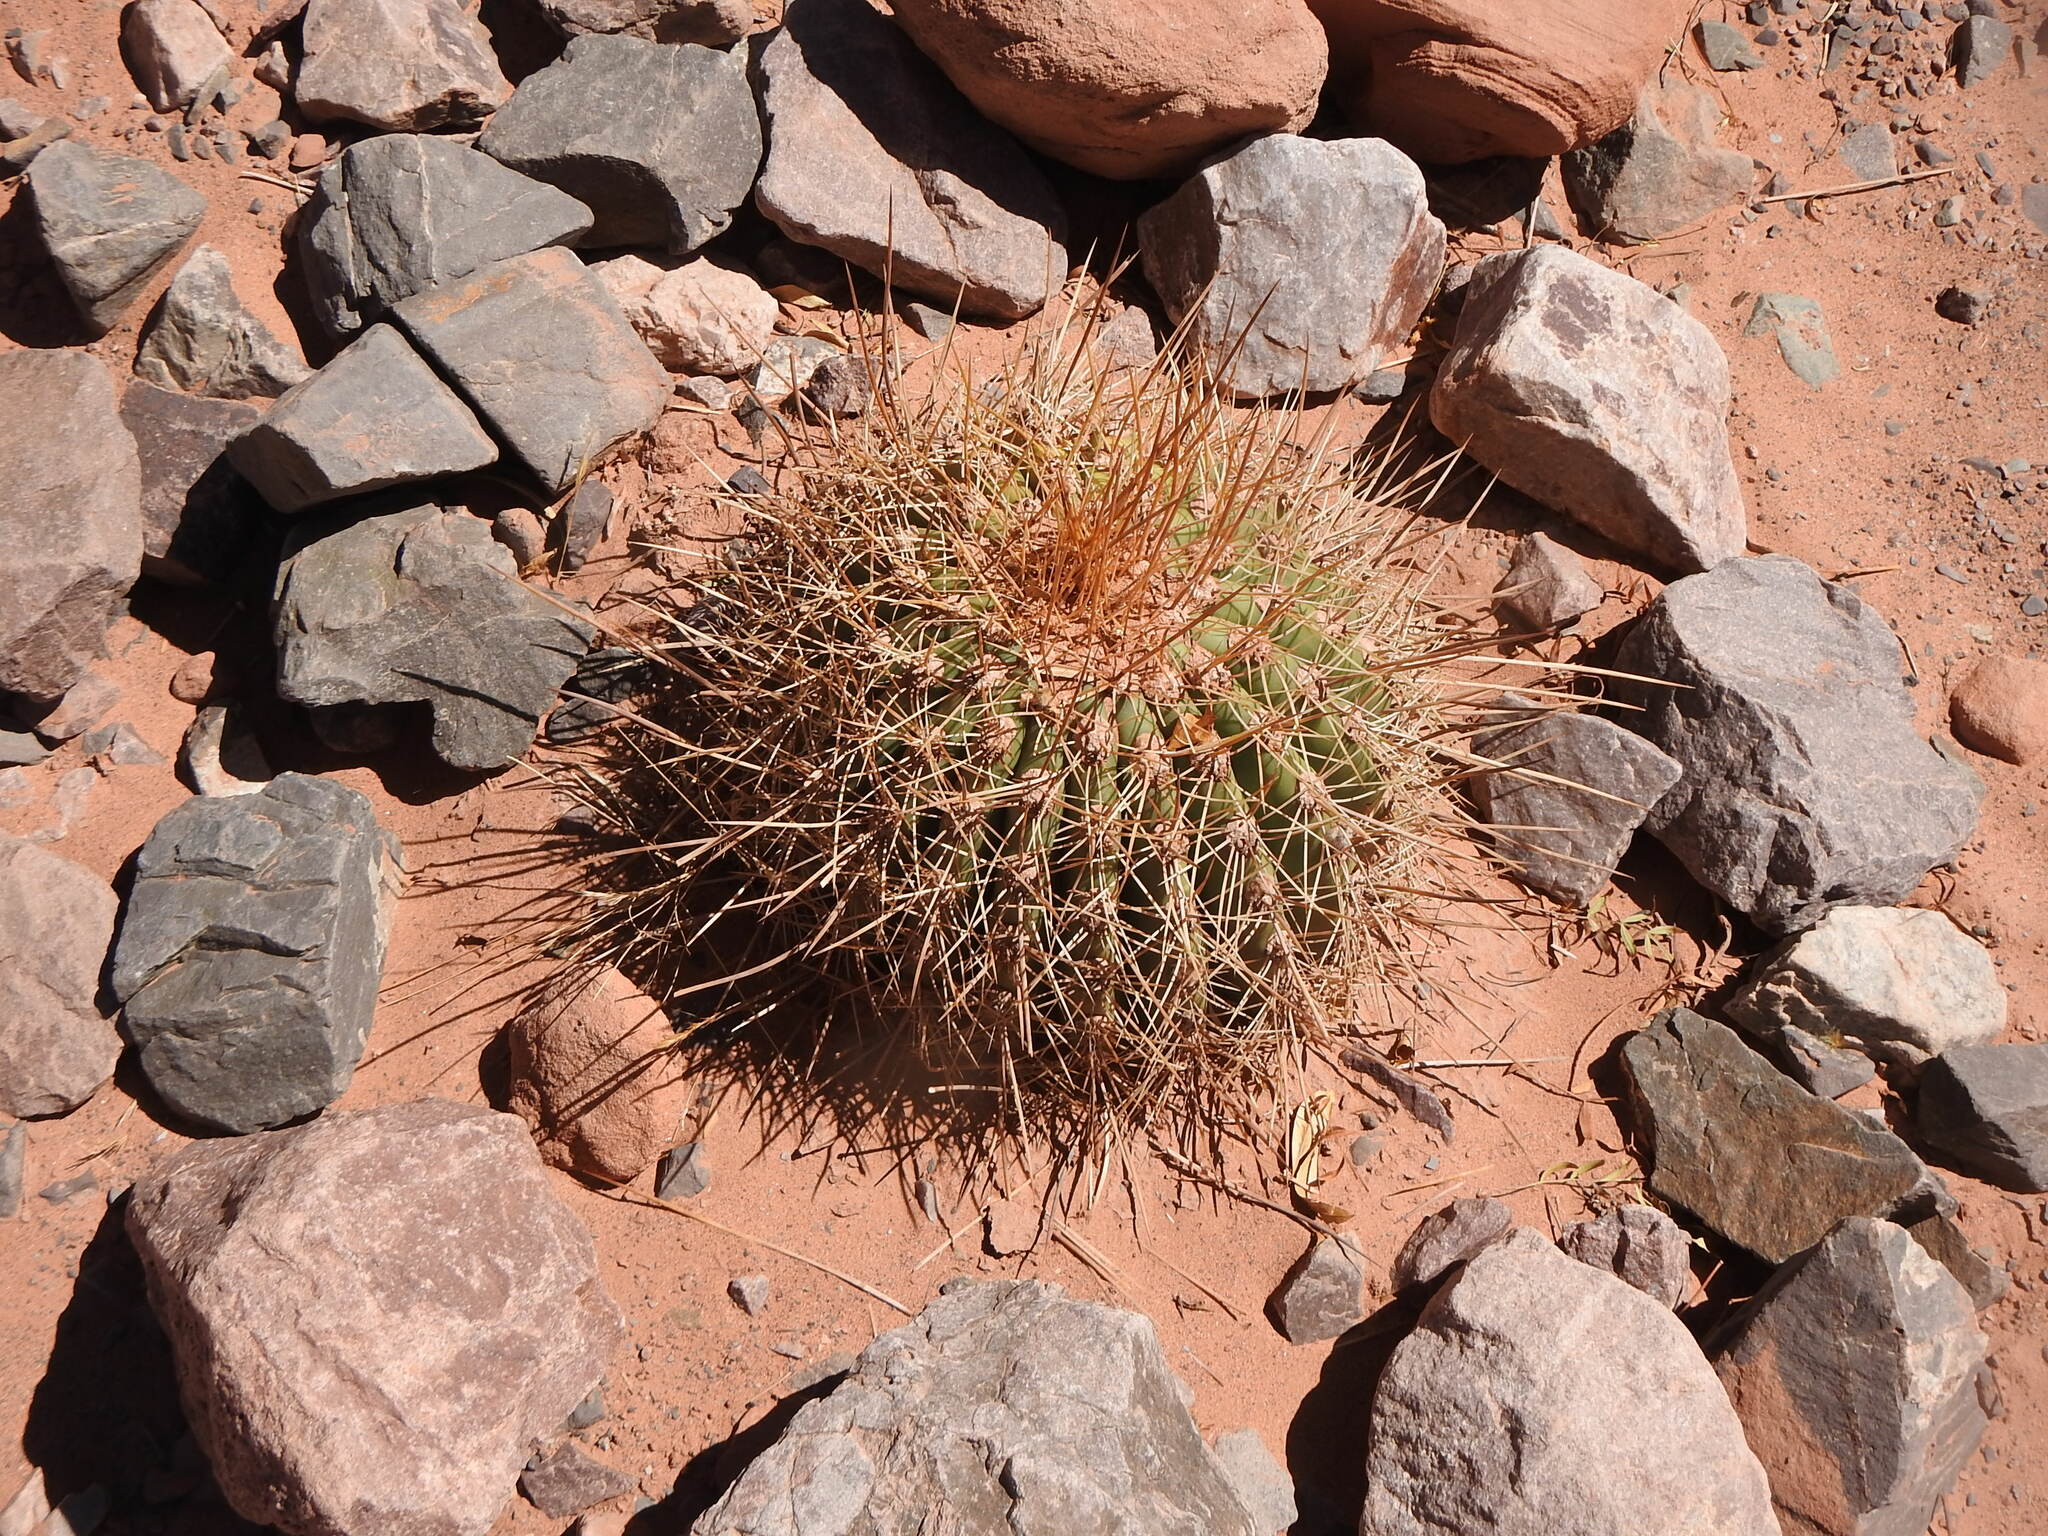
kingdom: Plantae
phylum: Tracheophyta
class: Magnoliopsida
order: Caryophyllales
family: Cactaceae
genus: Leucostele
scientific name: Leucostele atacamensis
